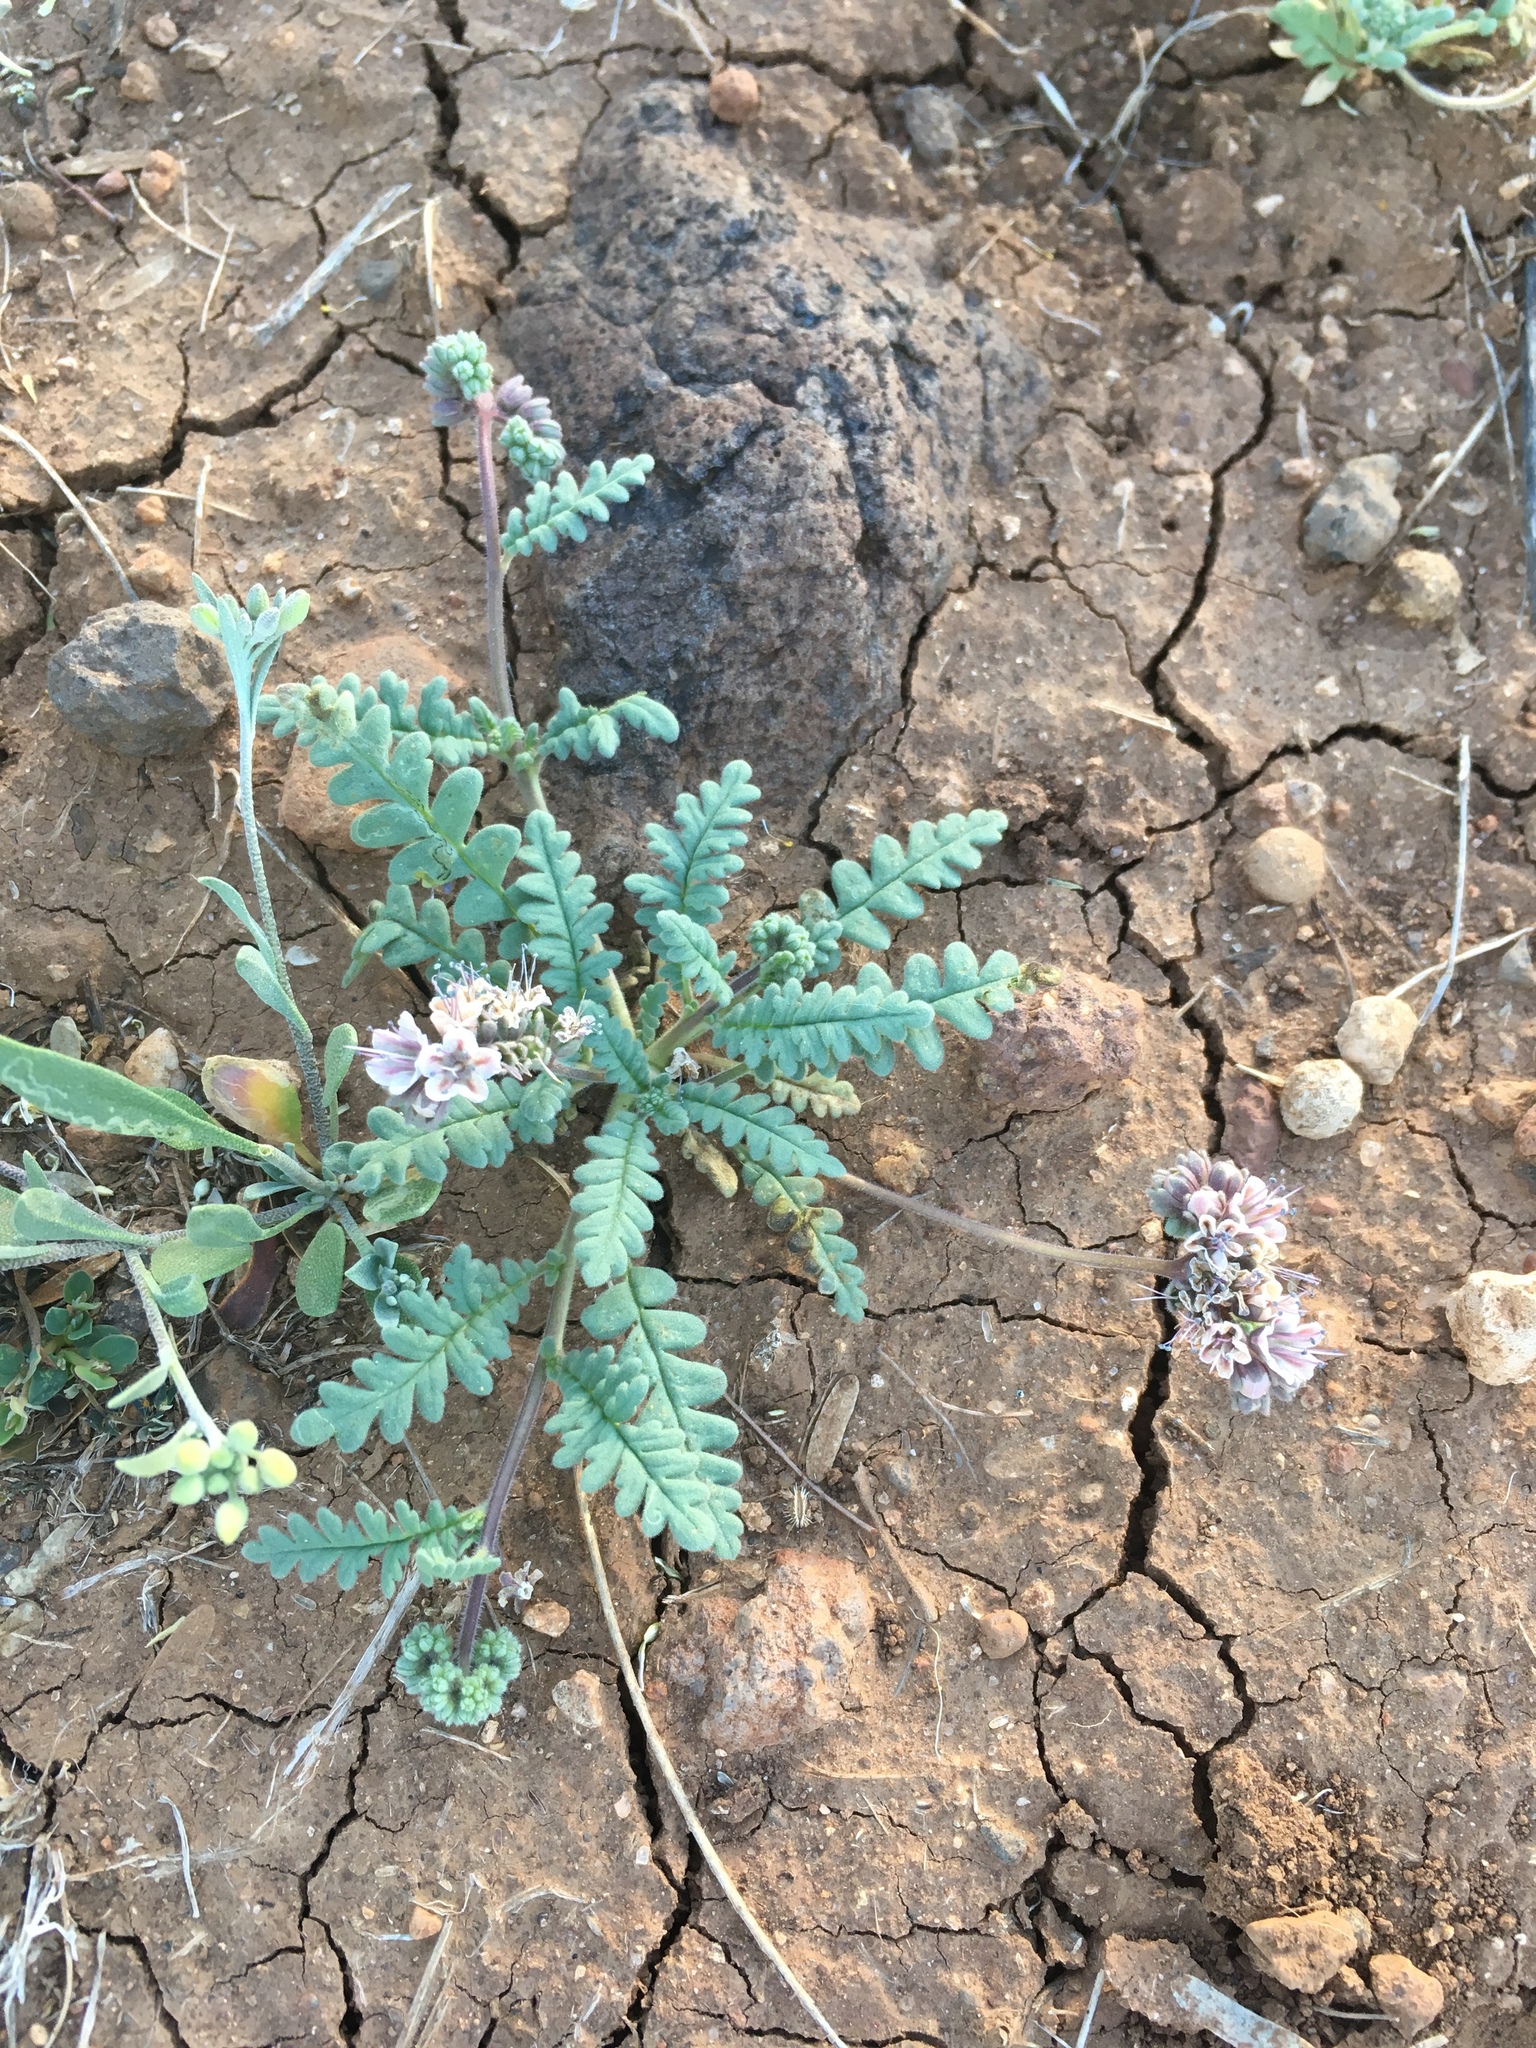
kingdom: Plantae
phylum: Tracheophyta
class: Magnoliopsida
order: Boraginales
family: Hydrophyllaceae
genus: Phacelia
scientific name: Phacelia arizonica
